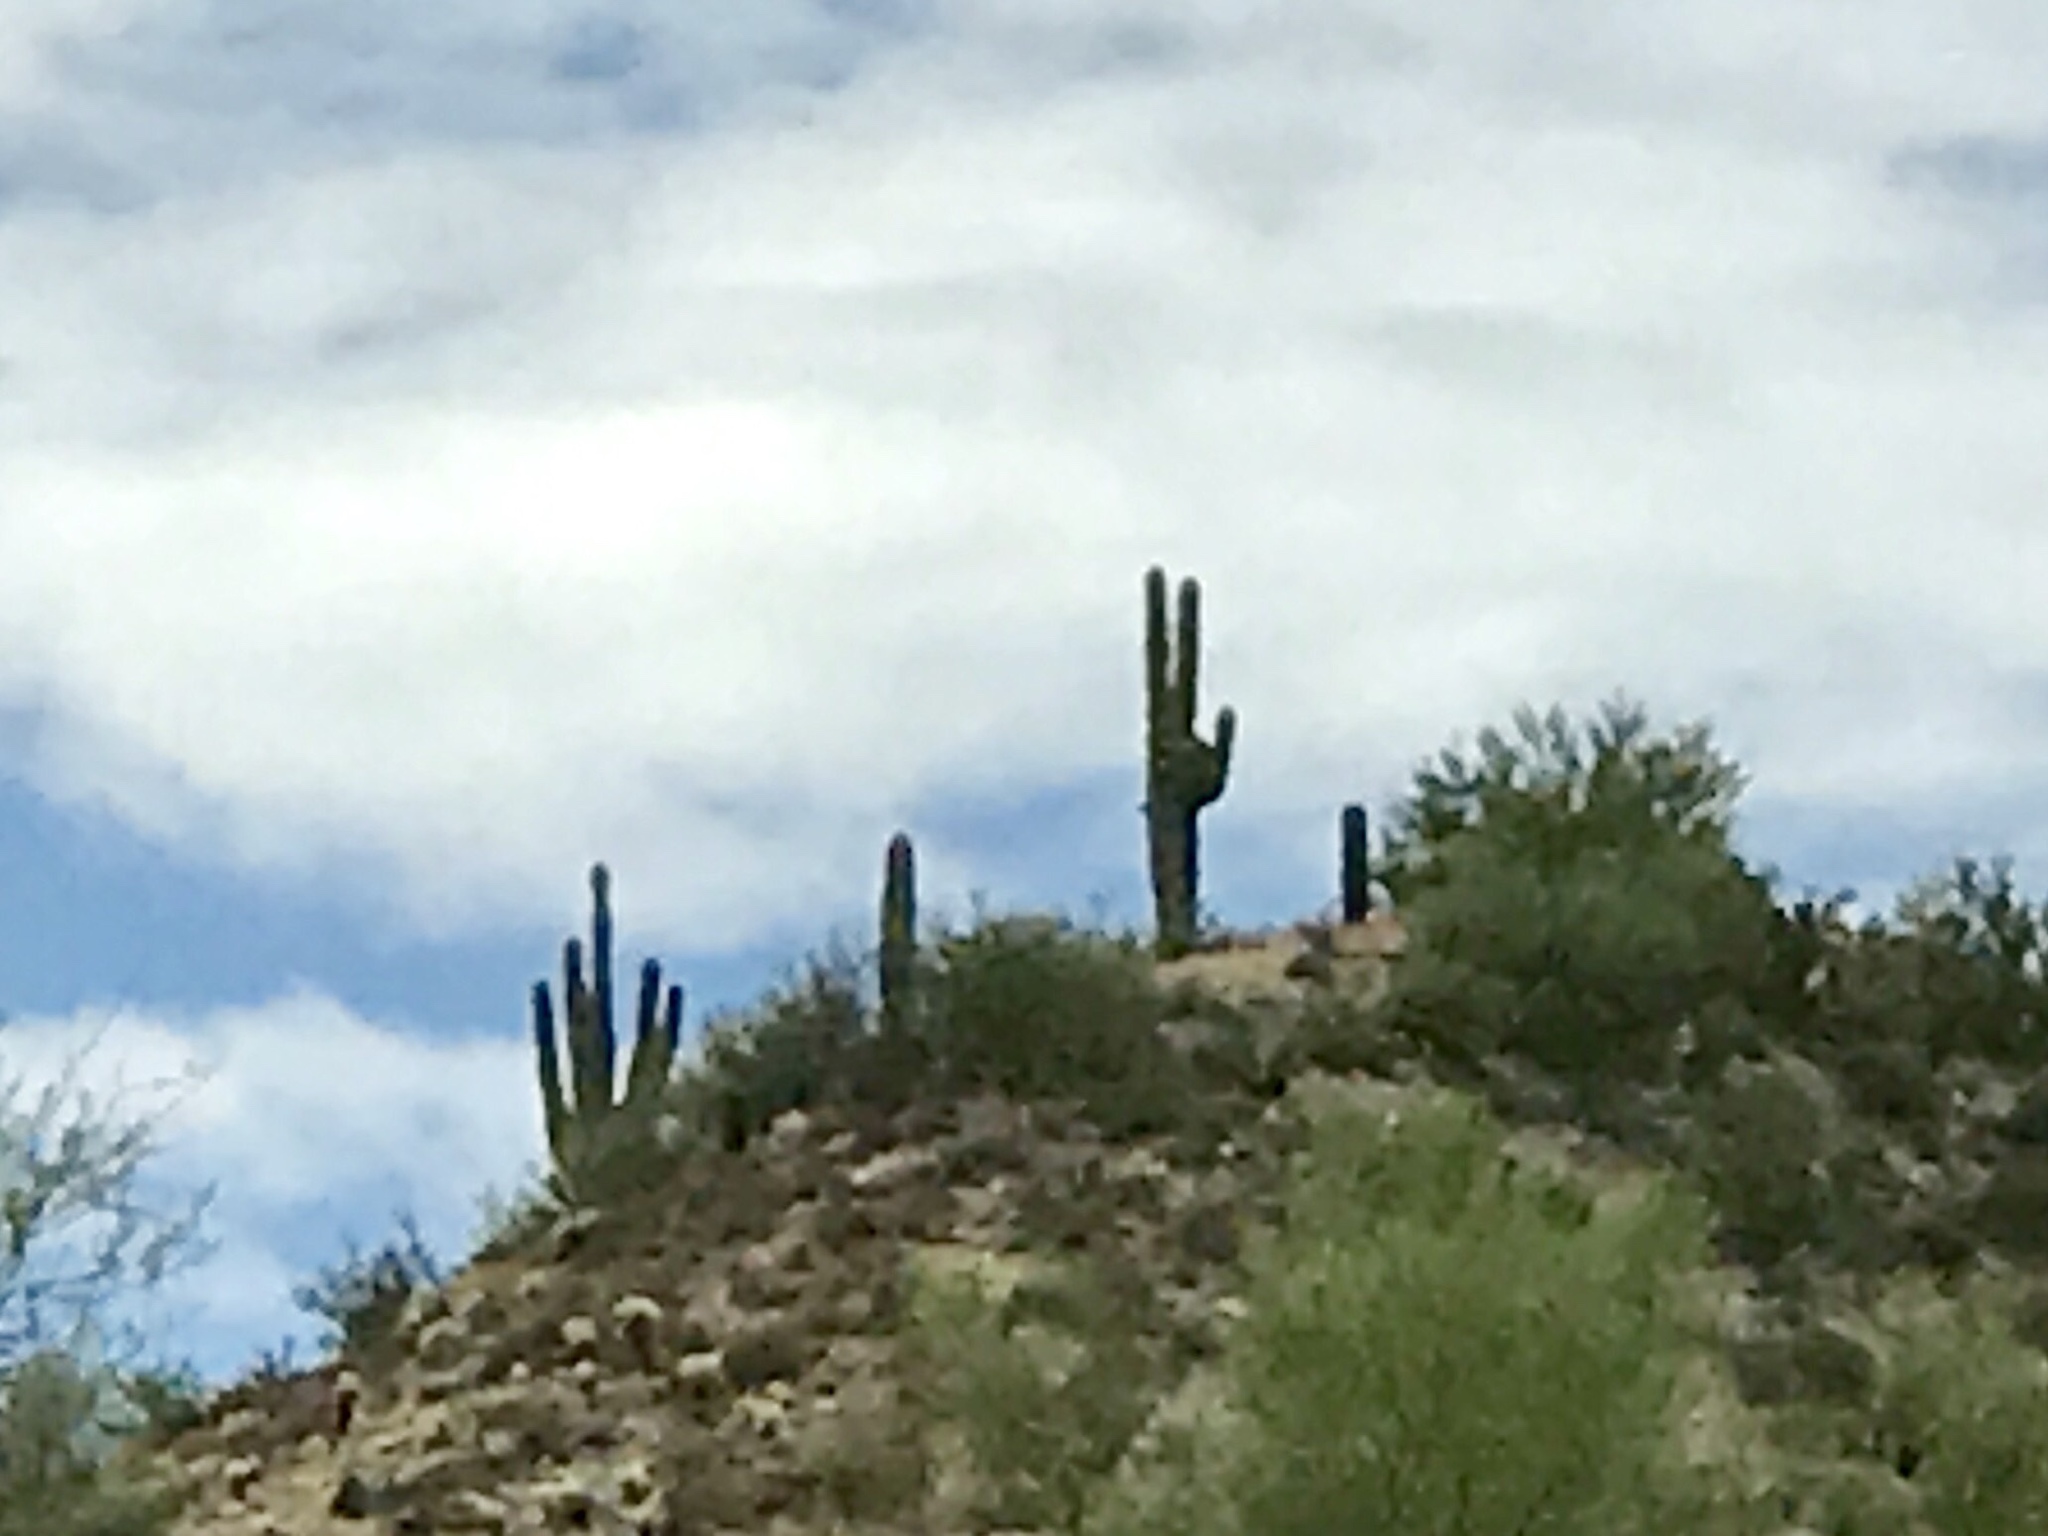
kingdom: Plantae
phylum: Tracheophyta
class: Magnoliopsida
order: Caryophyllales
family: Cactaceae
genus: Carnegiea
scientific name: Carnegiea gigantea
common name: Saguaro
